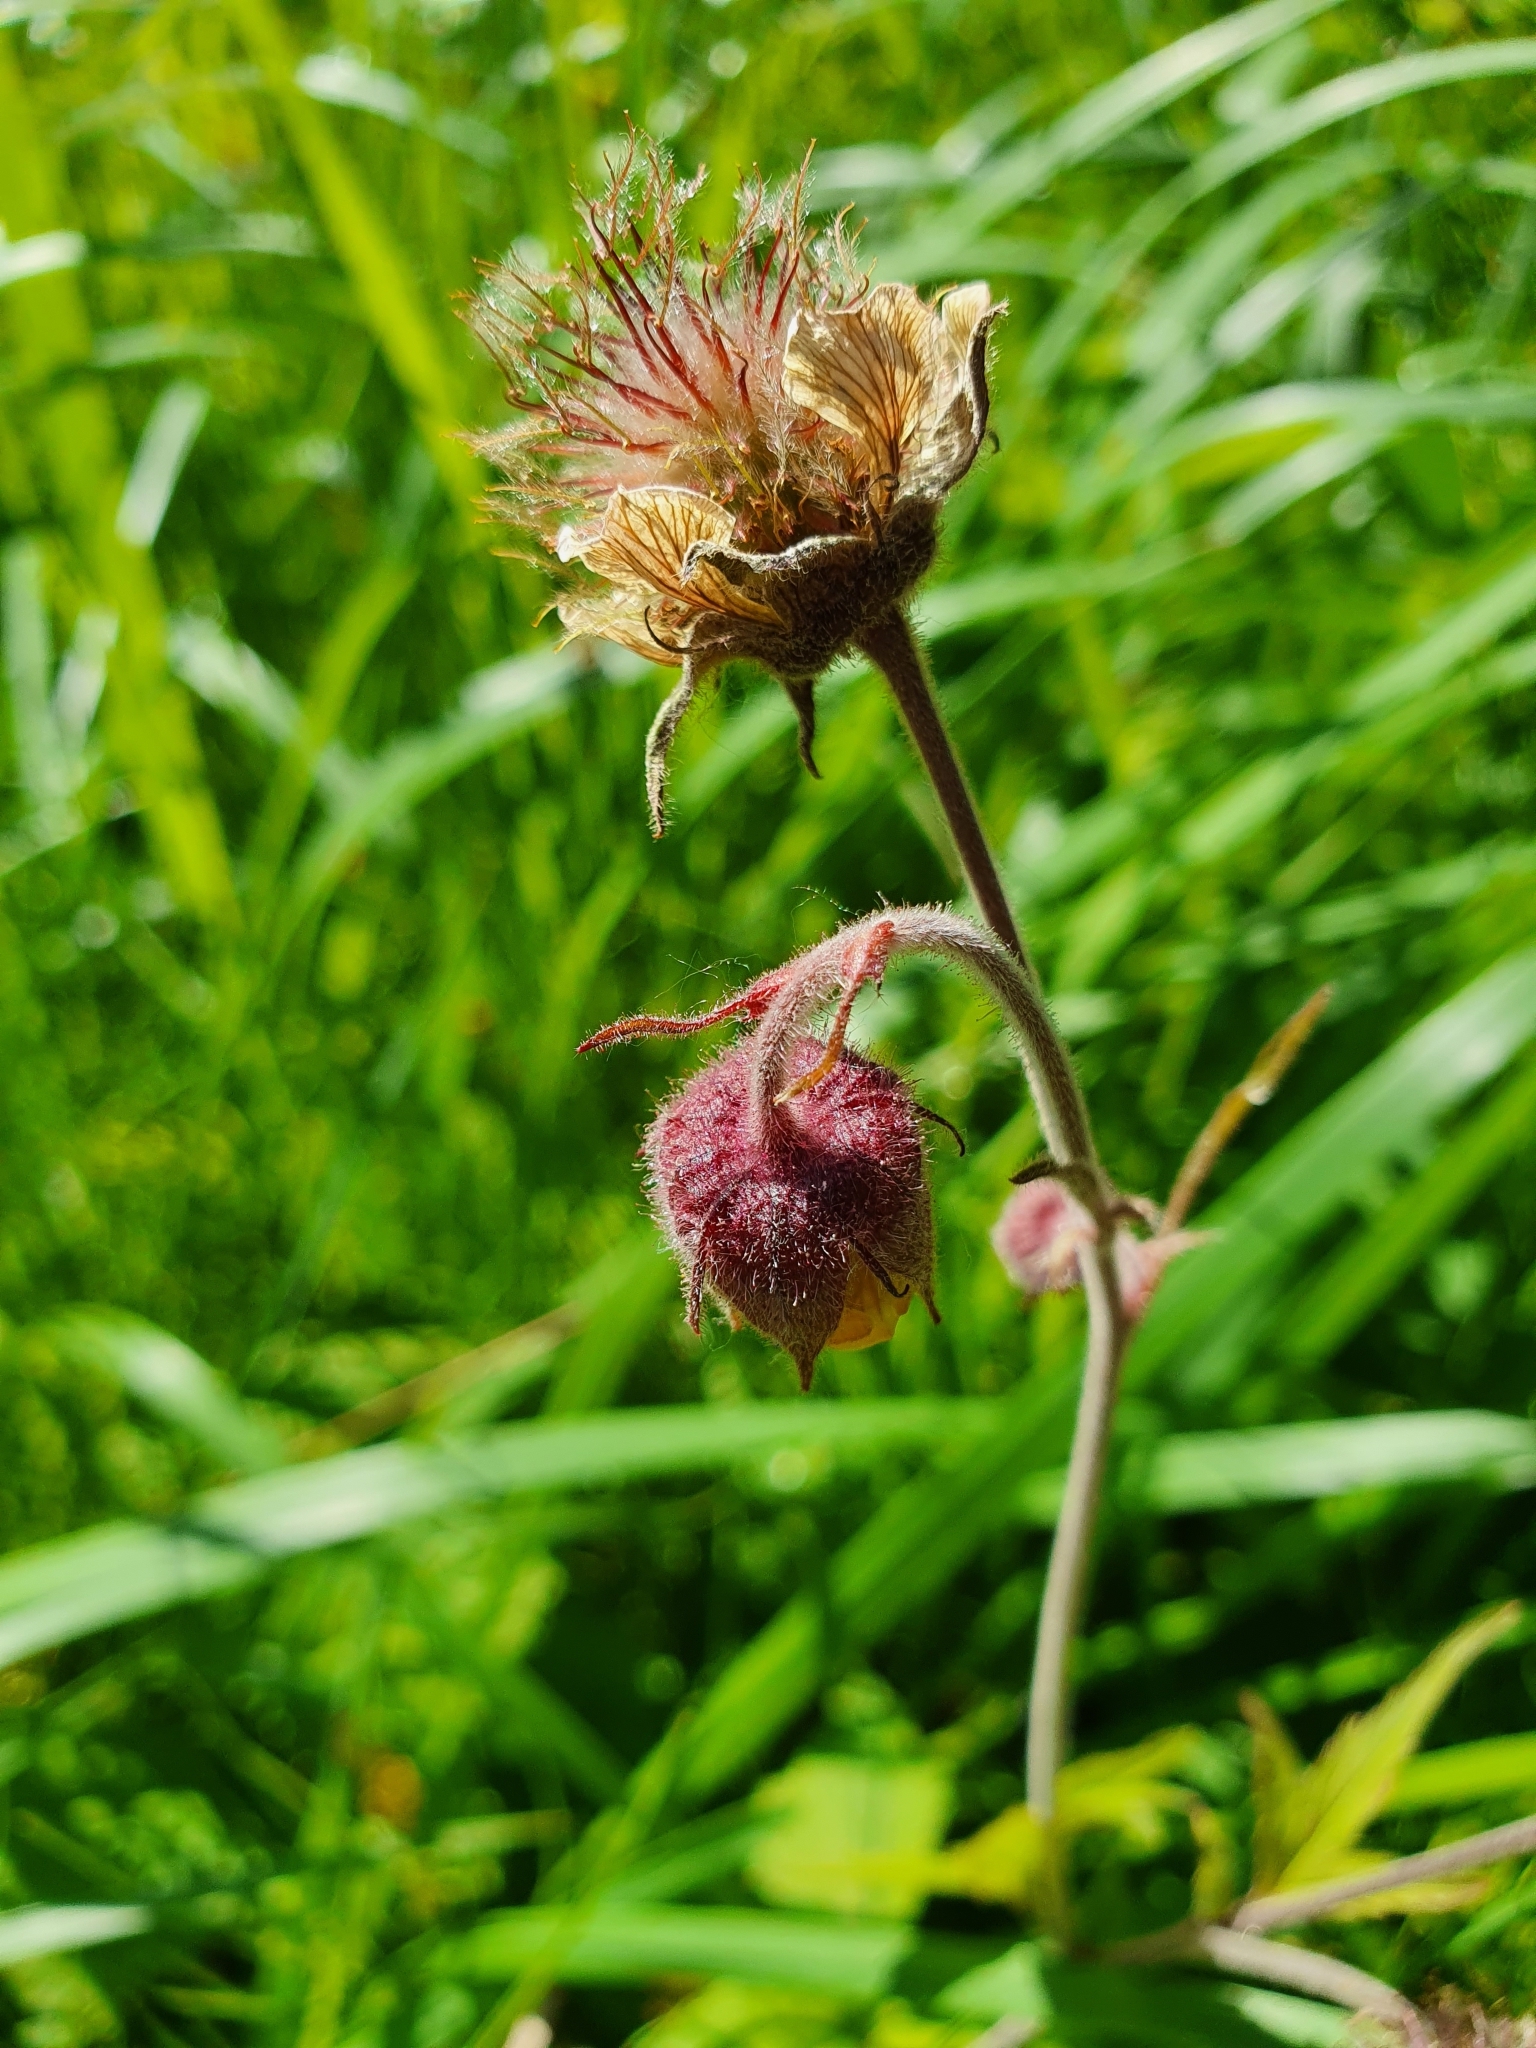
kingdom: Plantae
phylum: Tracheophyta
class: Magnoliopsida
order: Rosales
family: Rosaceae
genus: Geum
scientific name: Geum rivale
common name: Water avens
